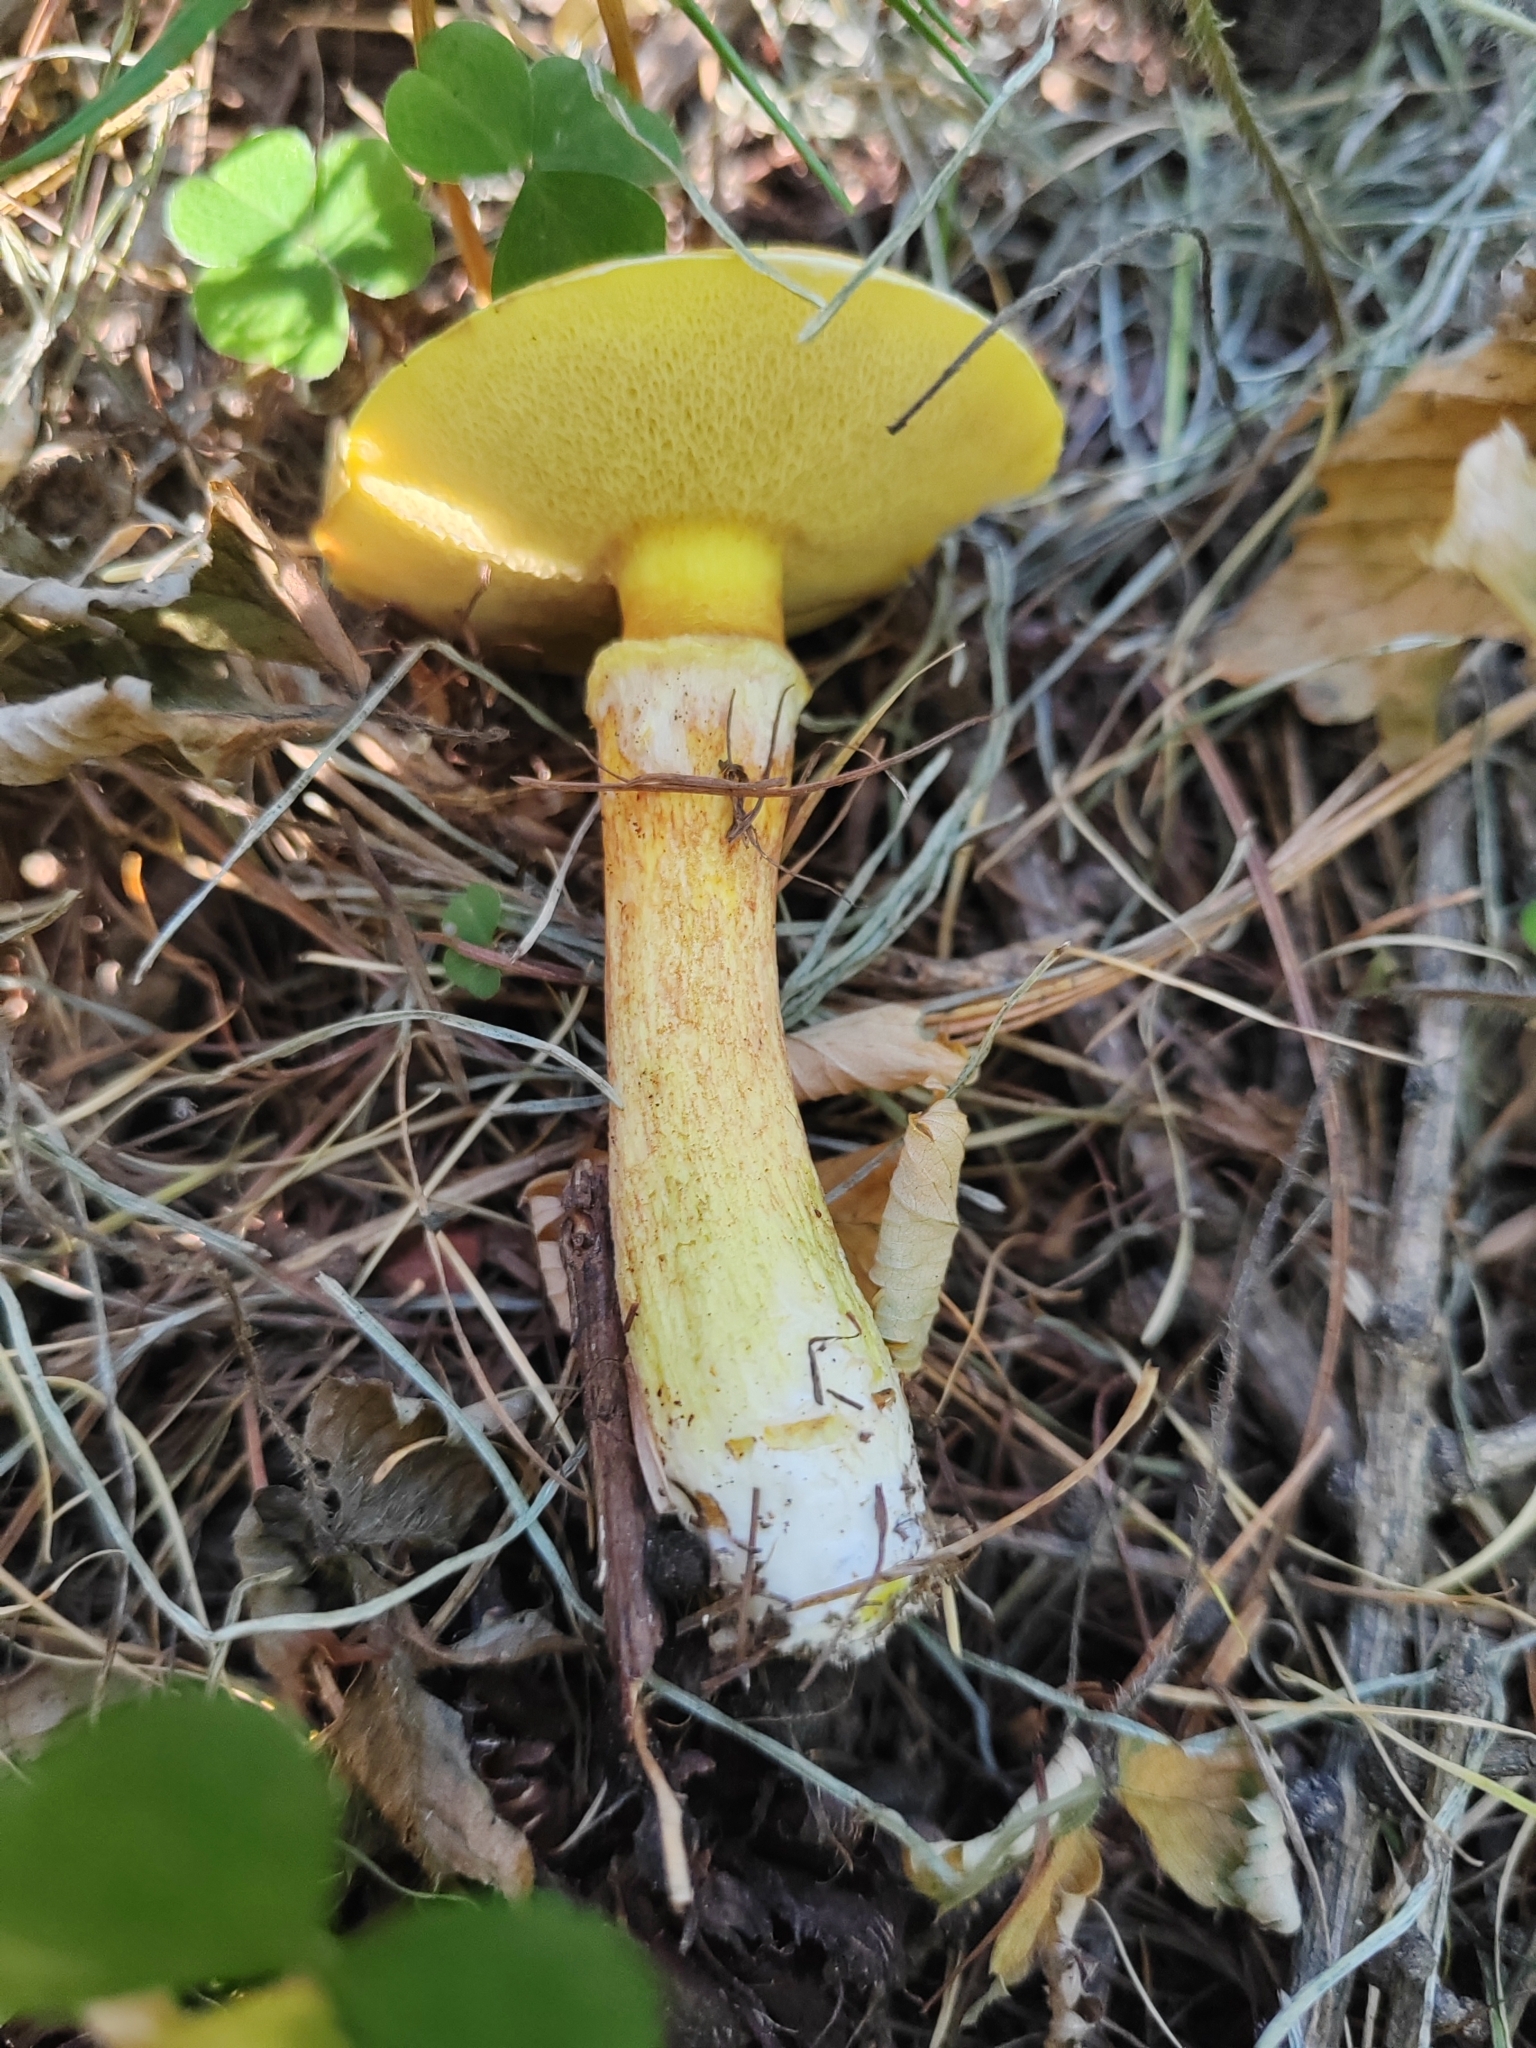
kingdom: Fungi
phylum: Basidiomycota
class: Agaricomycetes
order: Boletales
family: Suillaceae
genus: Suillus
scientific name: Suillus grevillei
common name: Larch bolete
